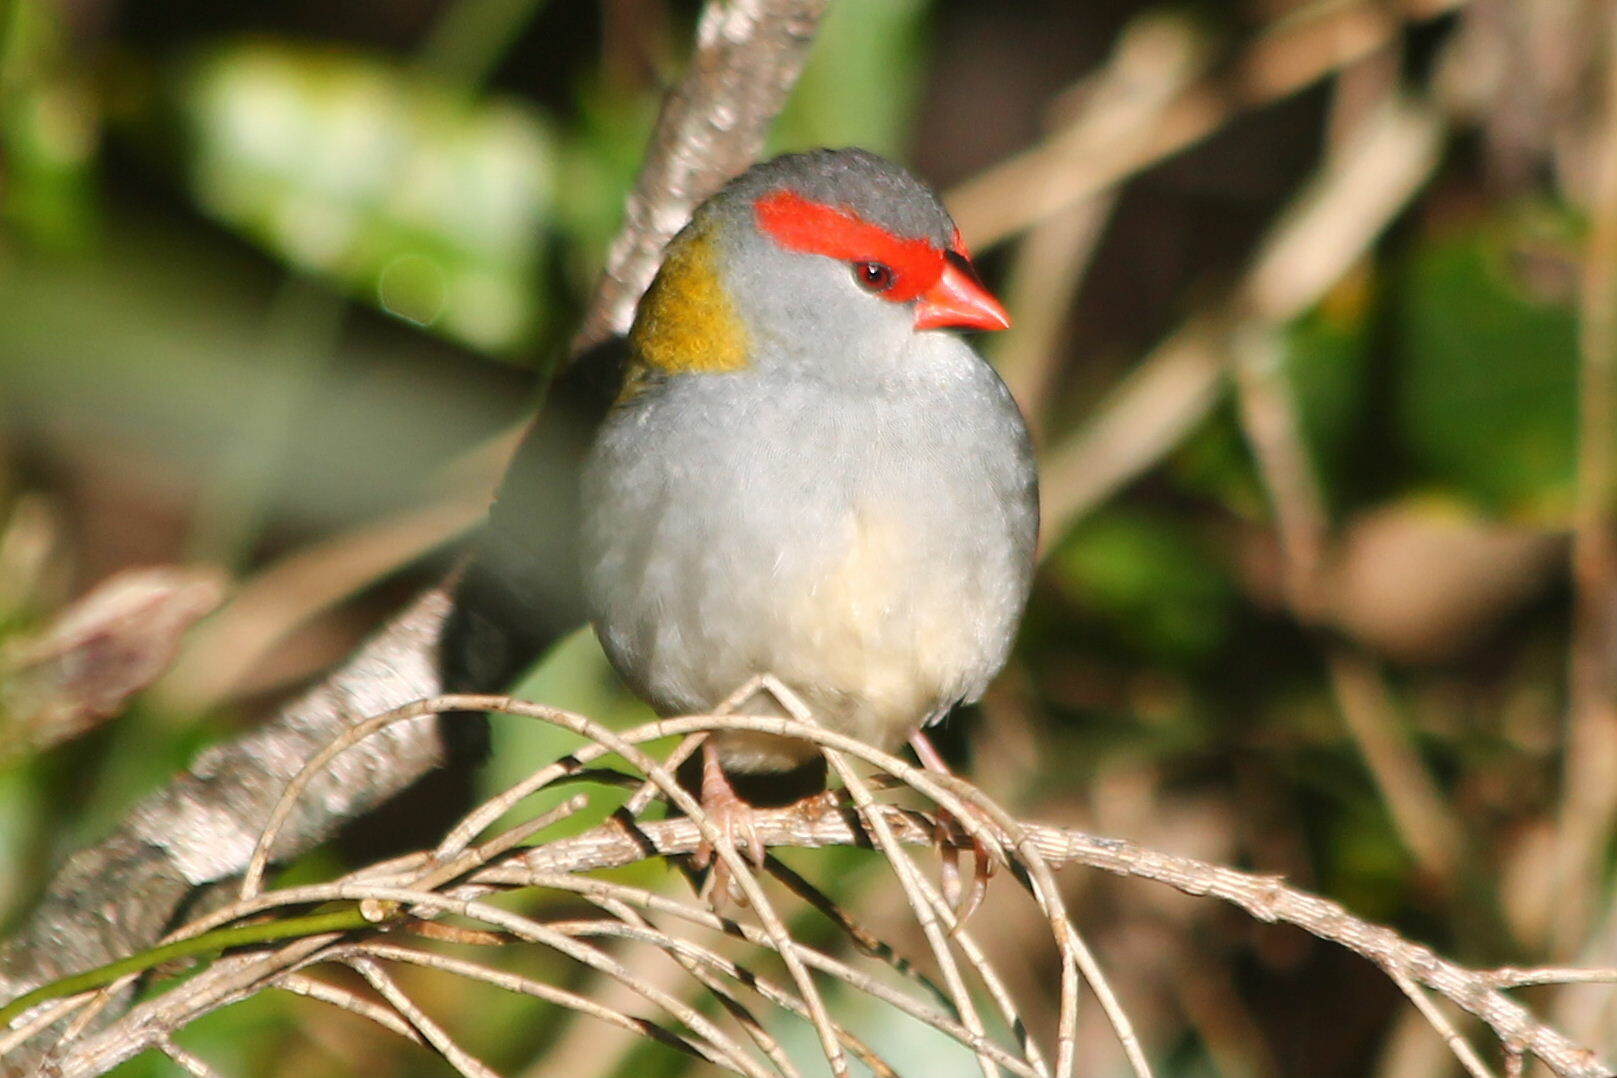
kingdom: Animalia
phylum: Chordata
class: Aves
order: Passeriformes
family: Estrildidae
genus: Neochmia
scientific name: Neochmia temporalis
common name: Red-browed finch
